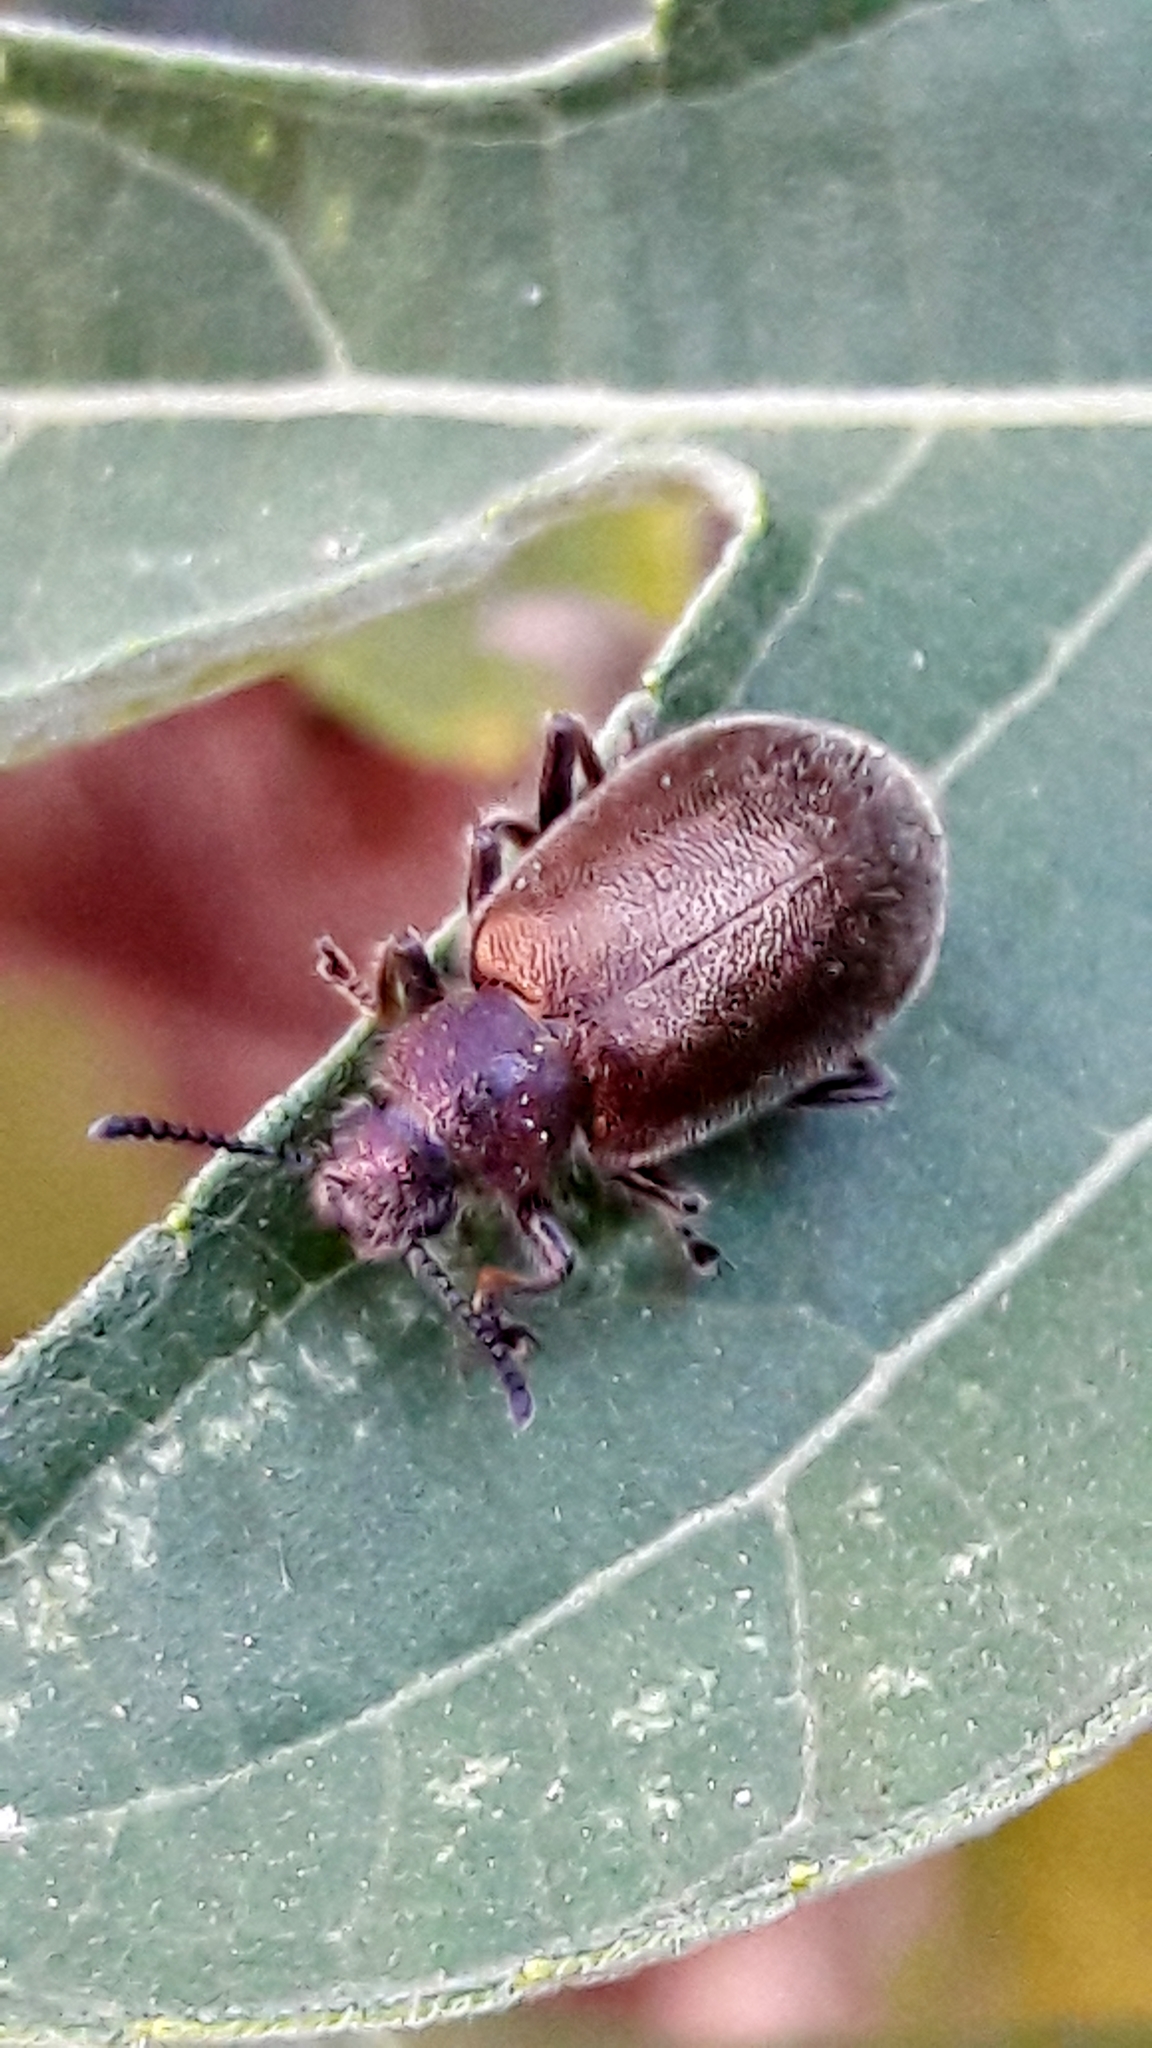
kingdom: Animalia
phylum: Arthropoda
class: Insecta
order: Coleoptera
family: Tenebrionidae
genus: Lagria
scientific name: Lagria villosa
